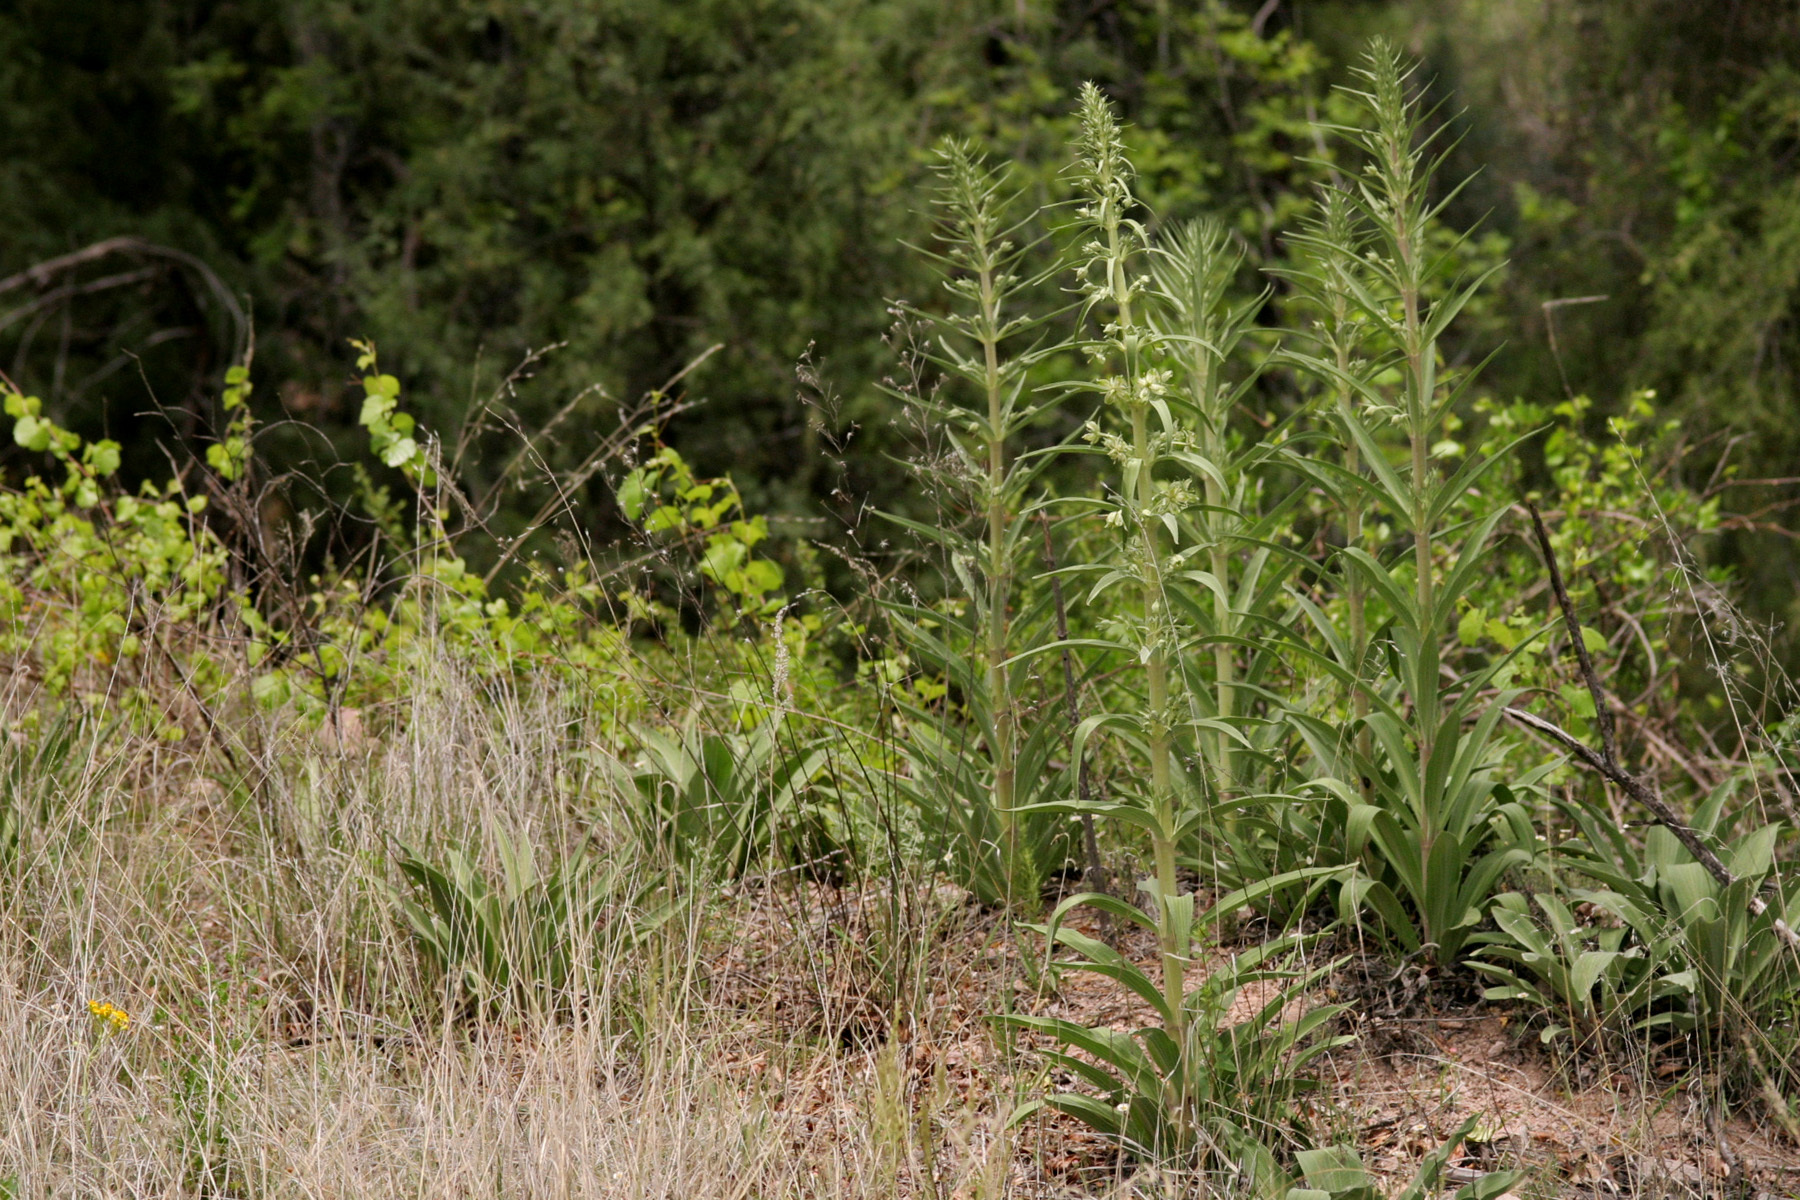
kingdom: Plantae
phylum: Tracheophyta
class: Magnoliopsida
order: Gentianales
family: Gentianaceae
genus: Frasera
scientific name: Frasera speciosa
